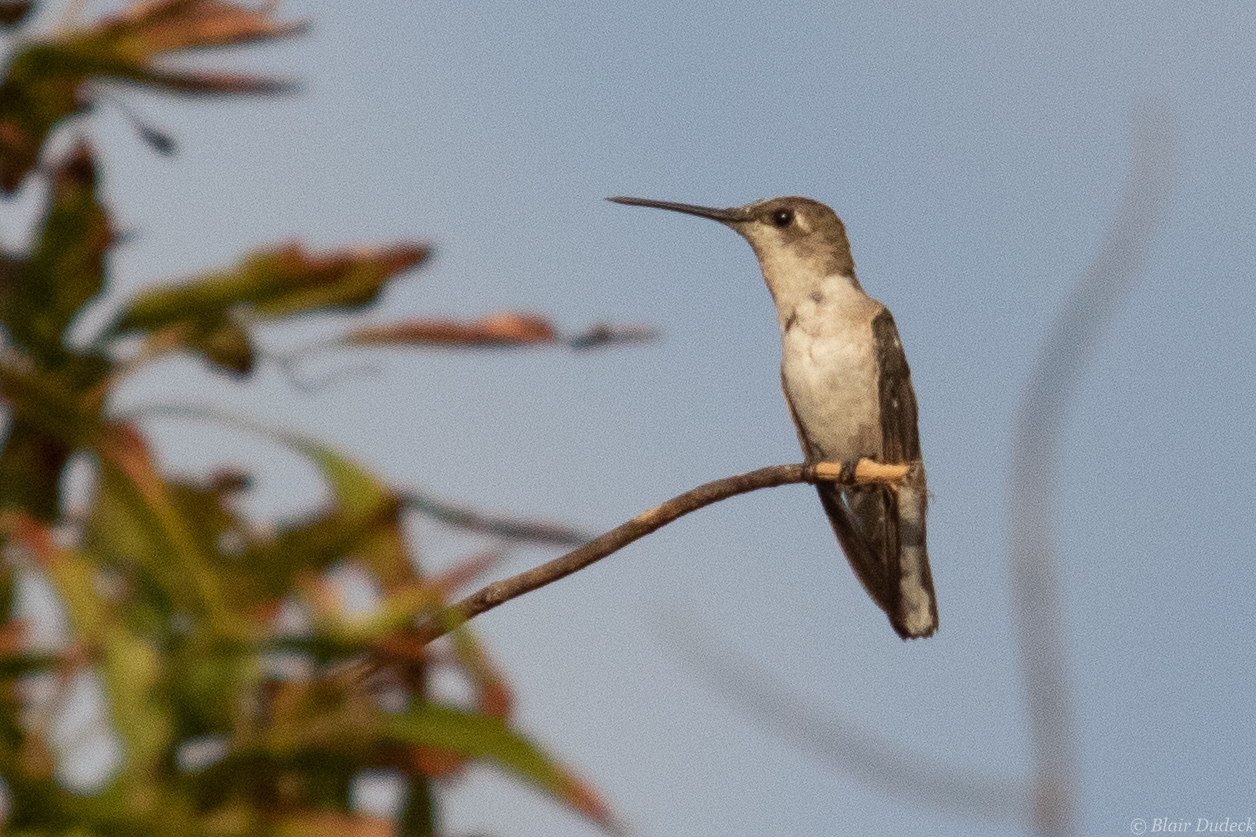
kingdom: Animalia
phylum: Chordata
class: Aves
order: Apodiformes
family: Trochilidae
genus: Archilochus
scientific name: Archilochus colubris
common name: Ruby-throated hummingbird
